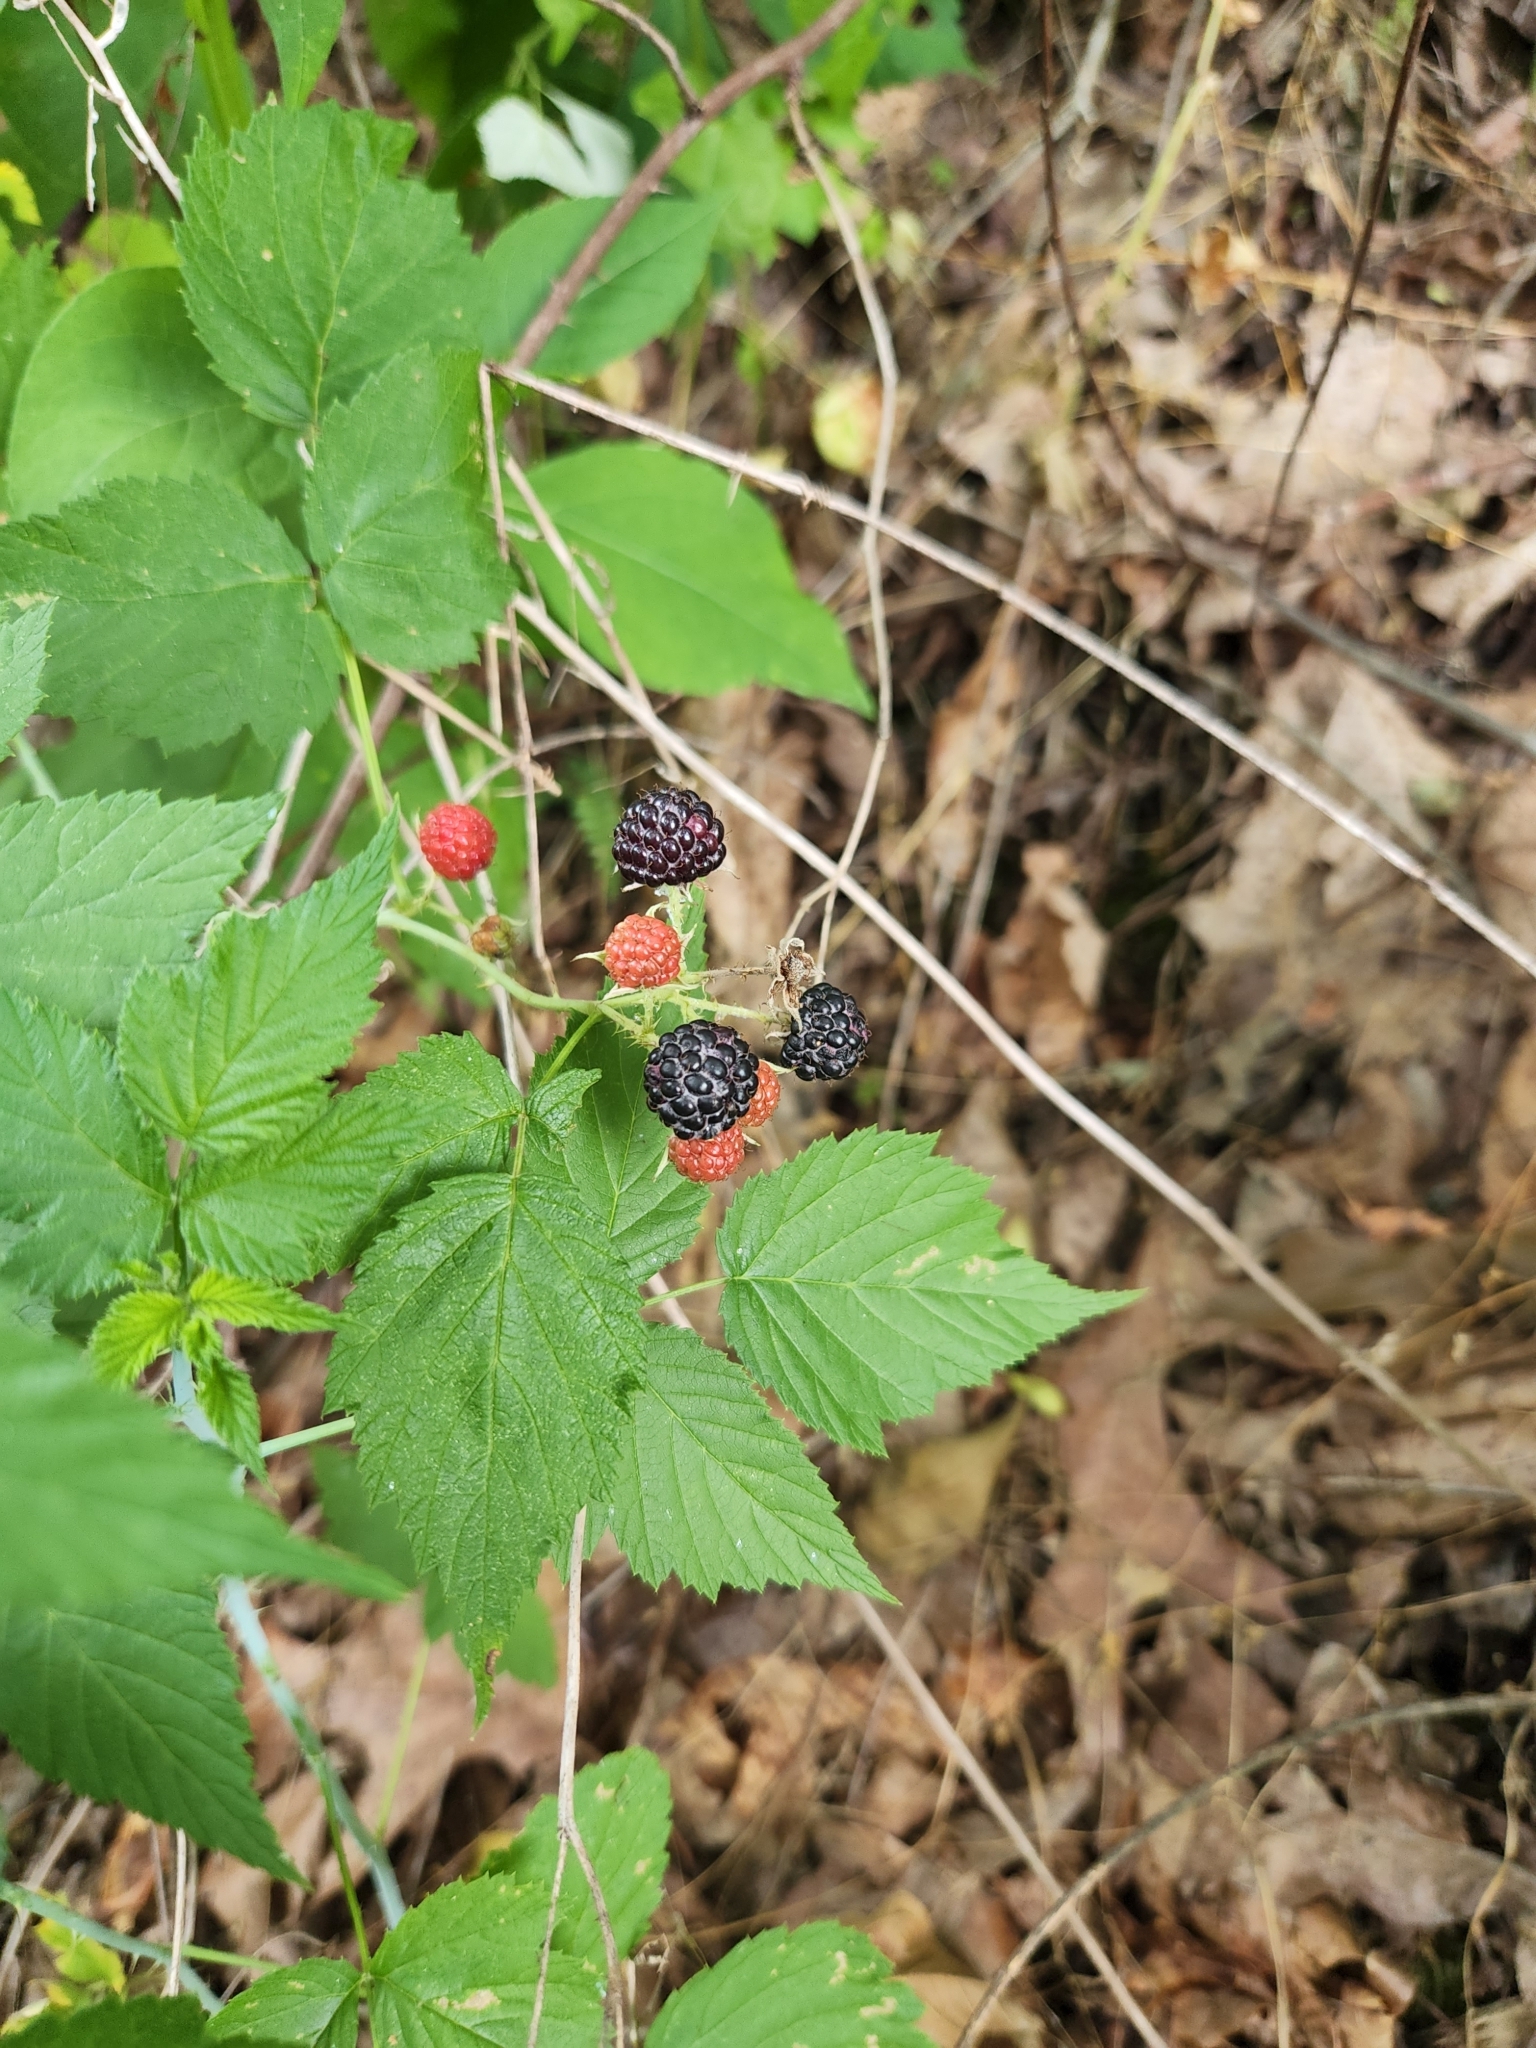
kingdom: Plantae
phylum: Tracheophyta
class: Magnoliopsida
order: Rosales
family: Rosaceae
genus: Rubus
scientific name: Rubus occidentalis
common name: Black raspberry
